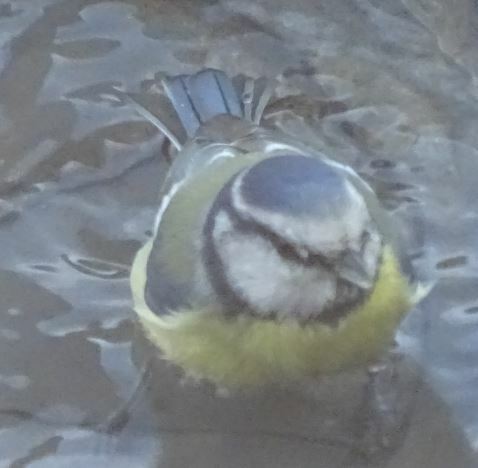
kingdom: Animalia
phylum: Chordata
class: Aves
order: Passeriformes
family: Paridae
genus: Cyanistes
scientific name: Cyanistes caeruleus
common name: Eurasian blue tit
